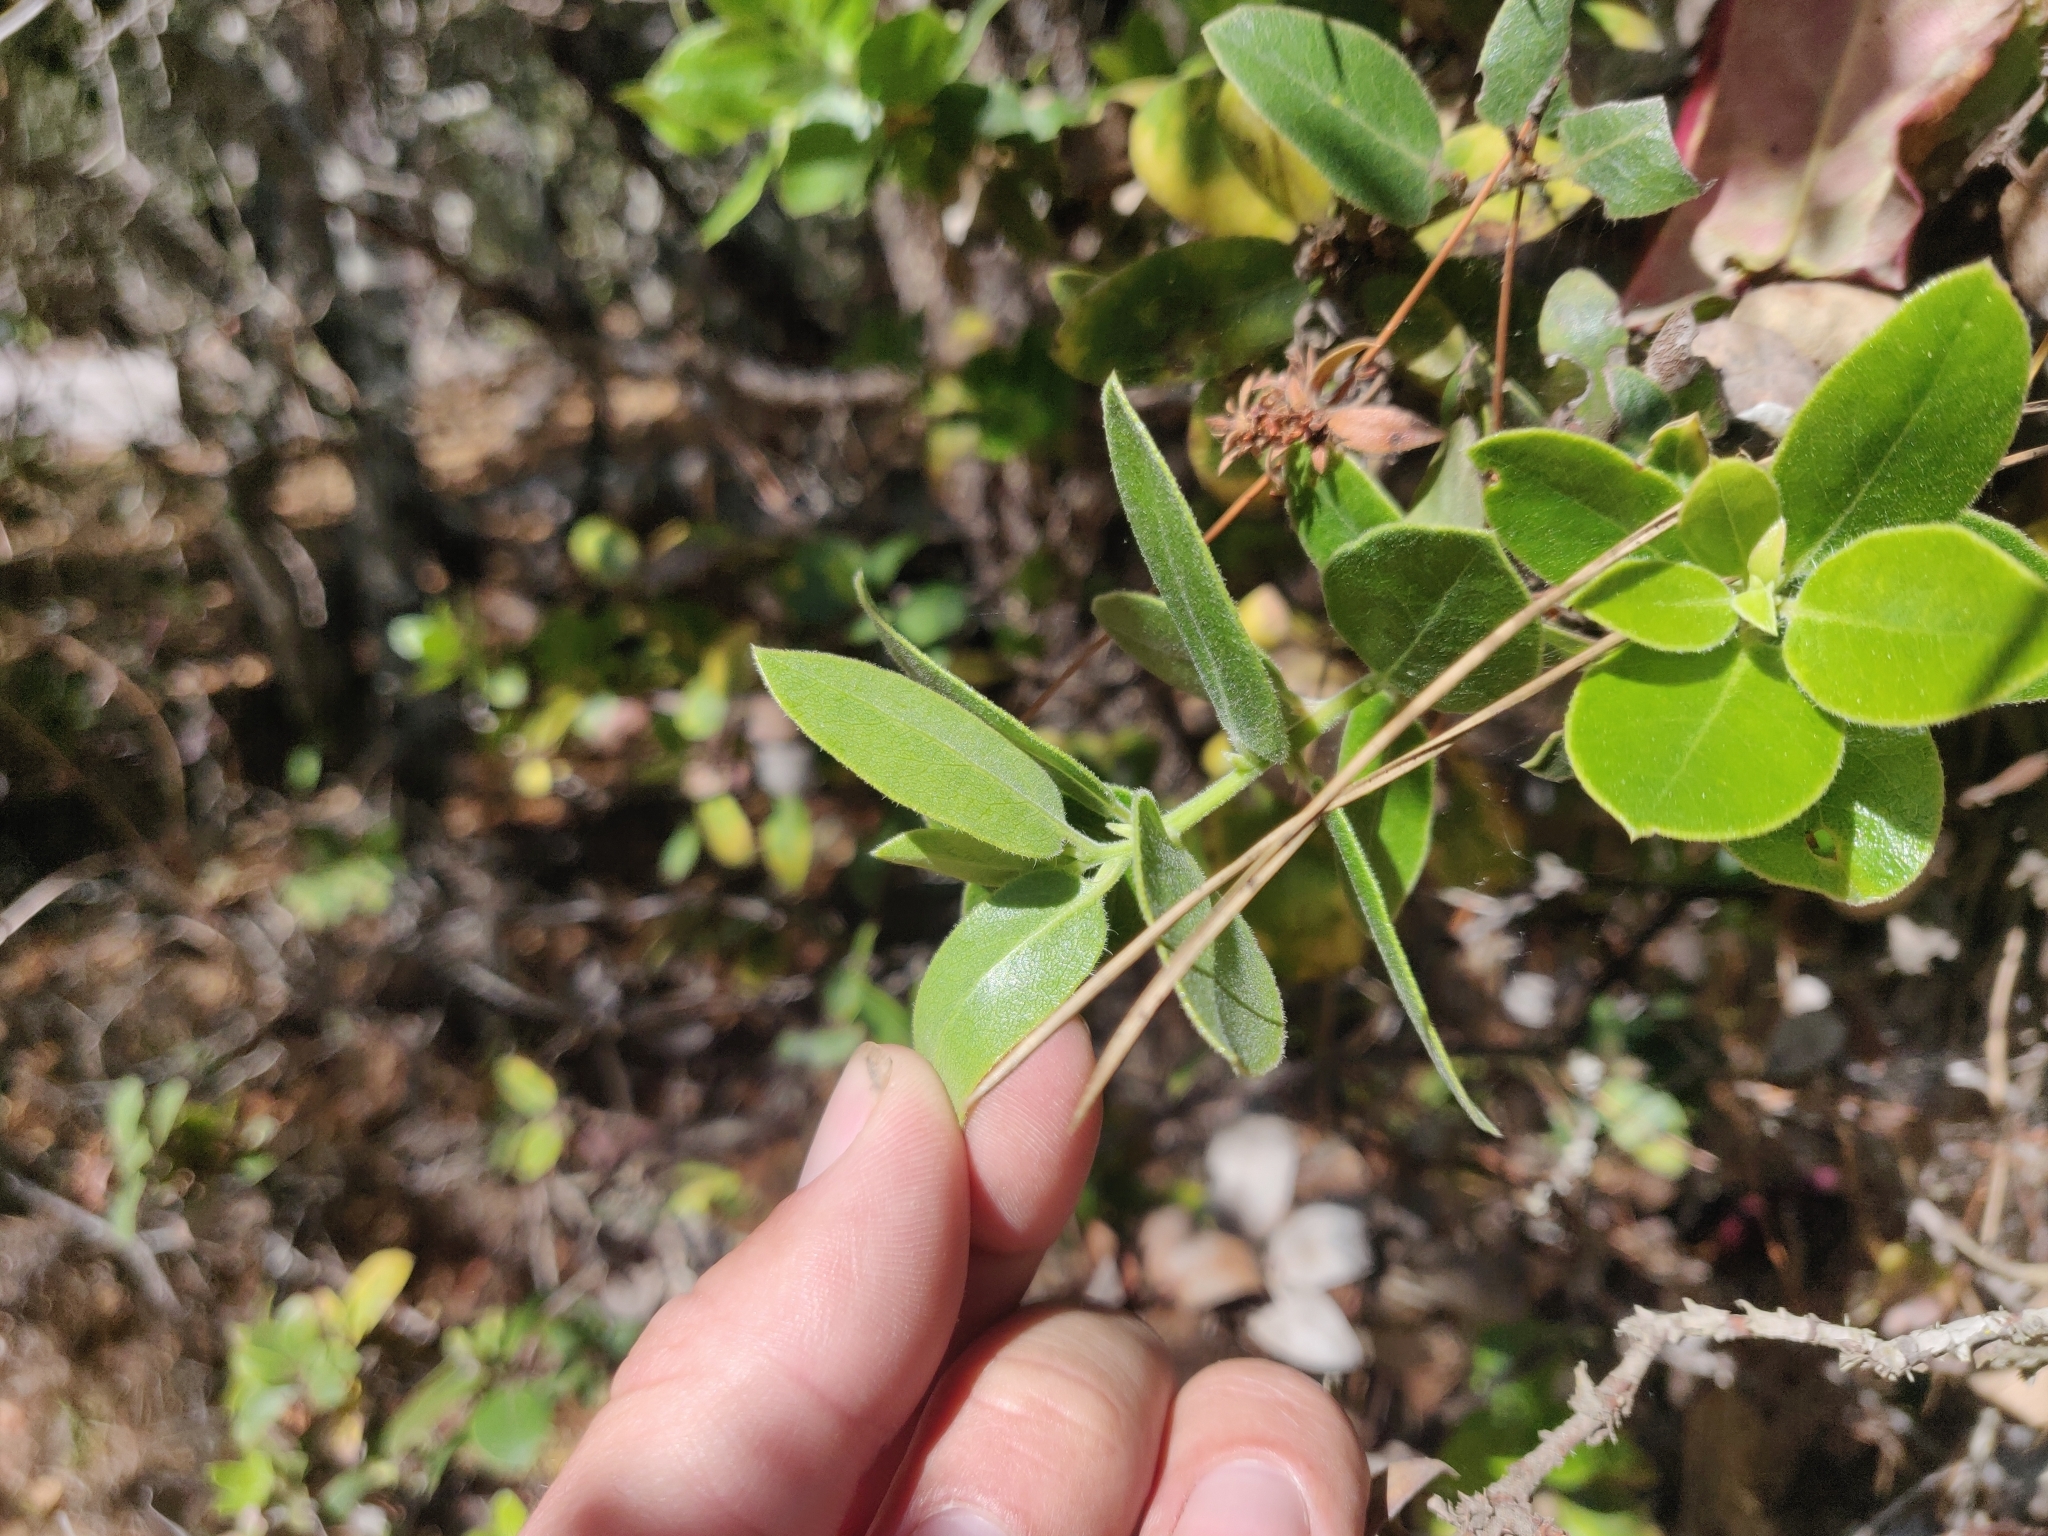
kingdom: Plantae
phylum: Tracheophyta
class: Magnoliopsida
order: Ericales
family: Ericaceae
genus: Arctostaphylos
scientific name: Arctostaphylos tomentosa
